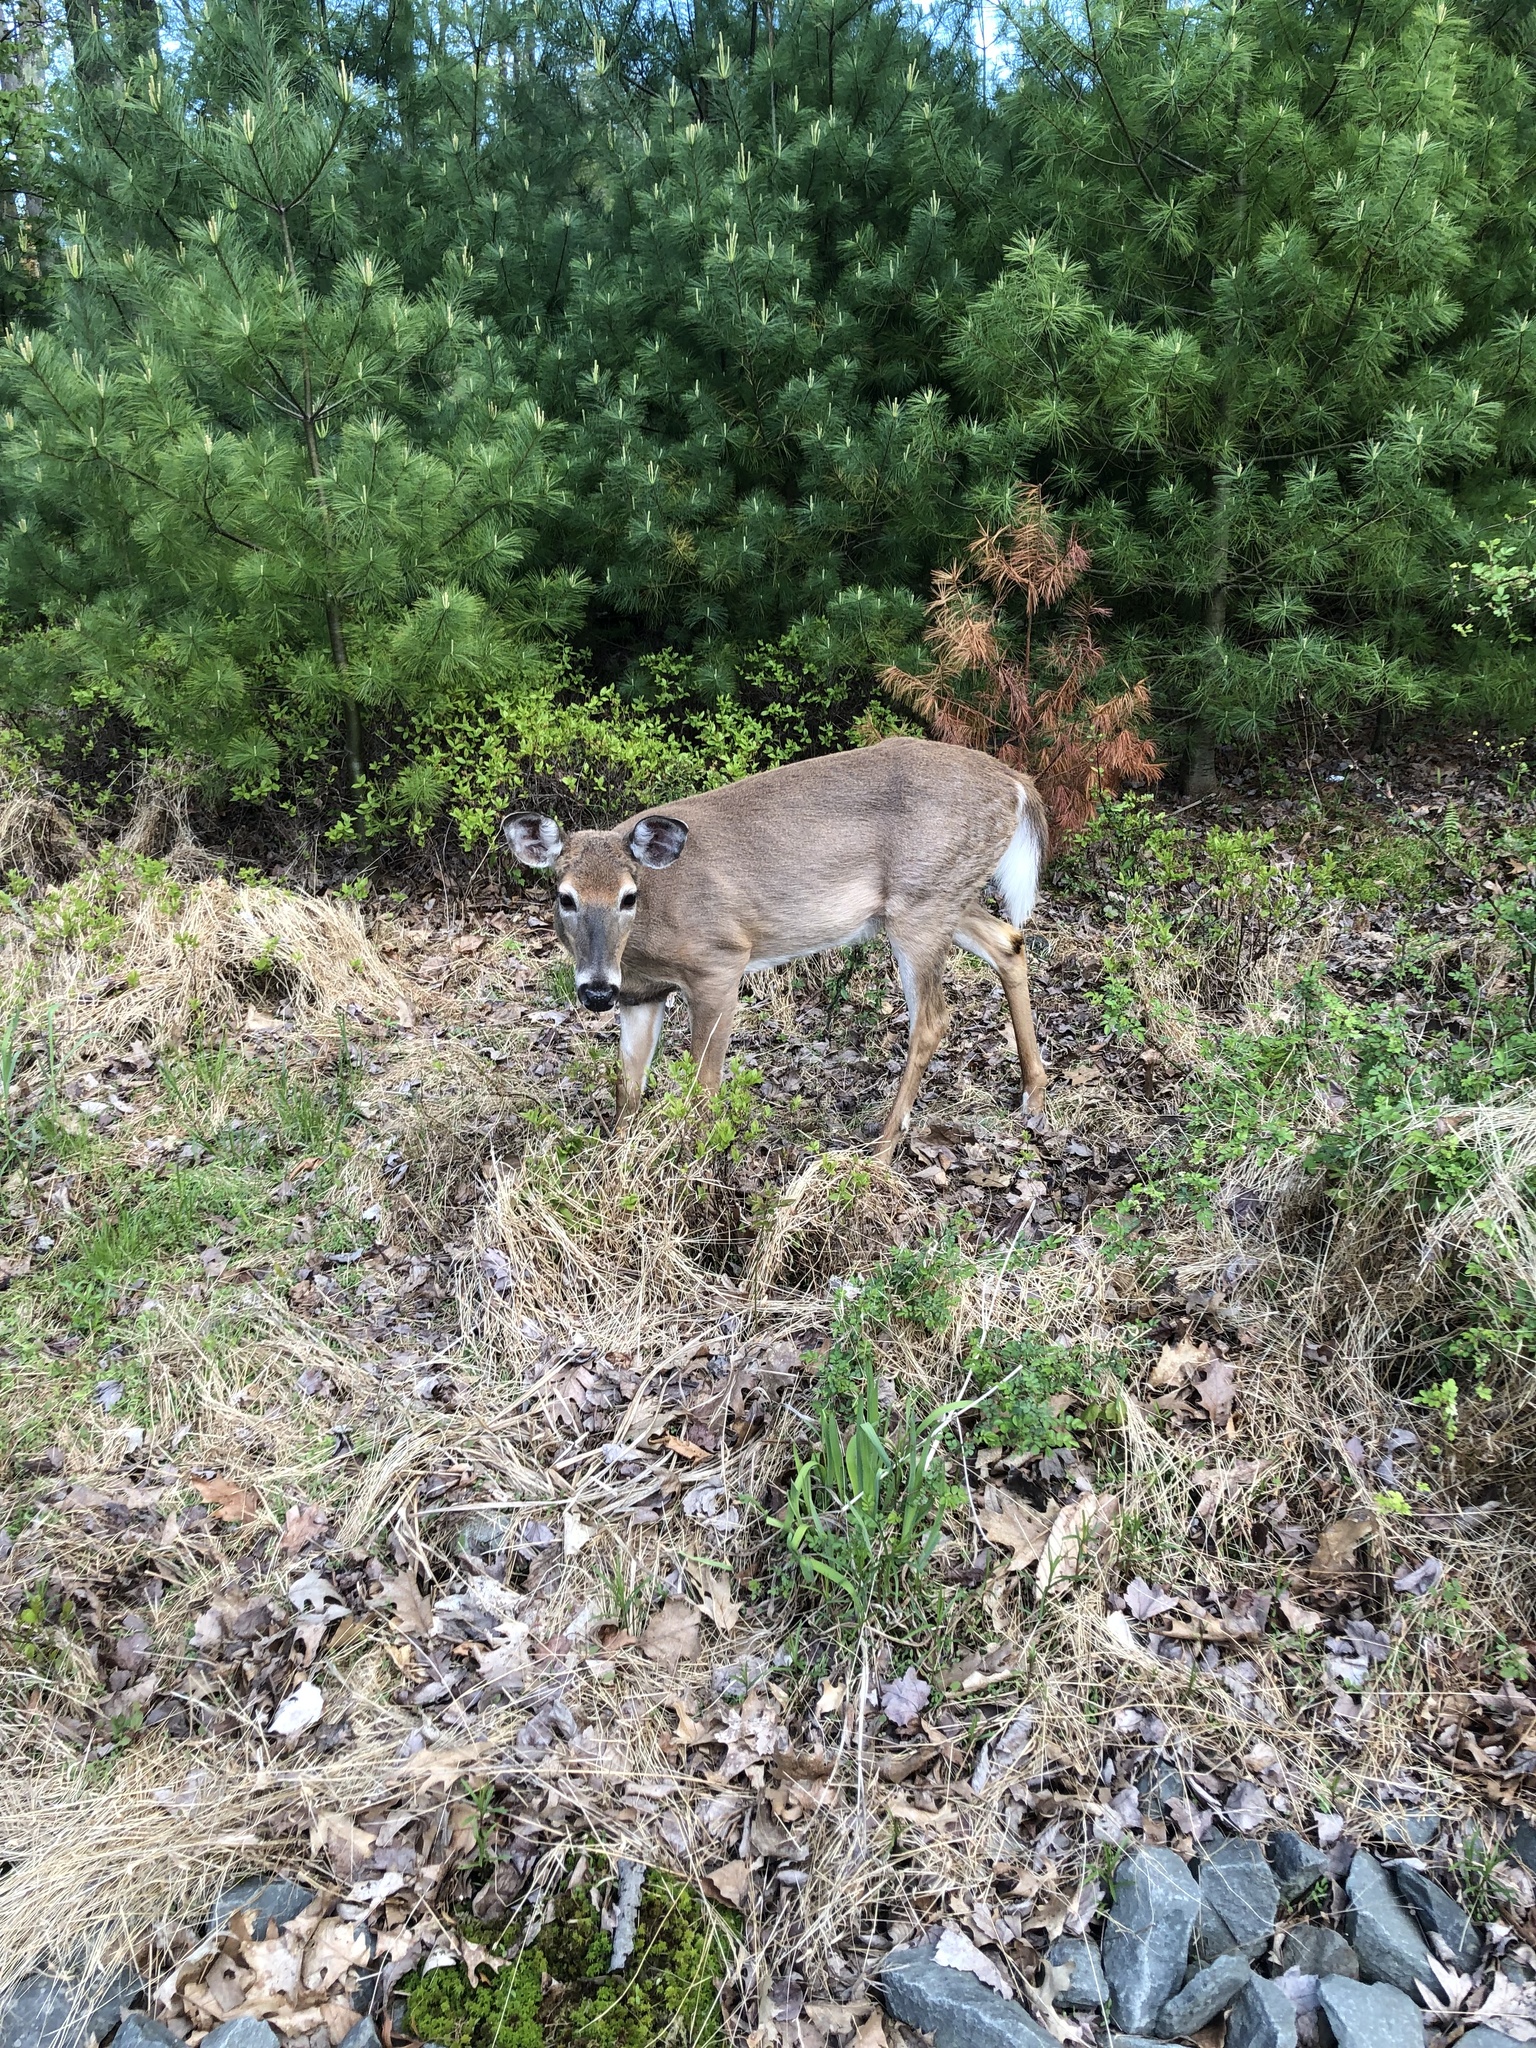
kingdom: Animalia
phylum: Chordata
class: Mammalia
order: Artiodactyla
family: Cervidae
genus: Odocoileus
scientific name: Odocoileus virginianus
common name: White-tailed deer
